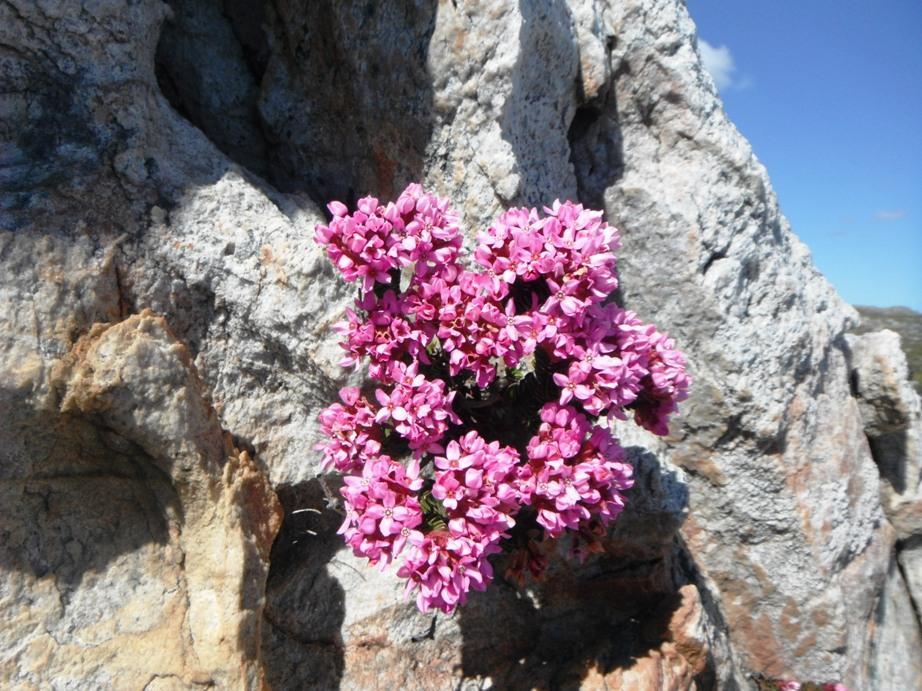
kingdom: Plantae
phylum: Tracheophyta
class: Magnoliopsida
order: Myrtales
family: Penaeaceae
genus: Sonderothamnus
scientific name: Sonderothamnus petraeus
